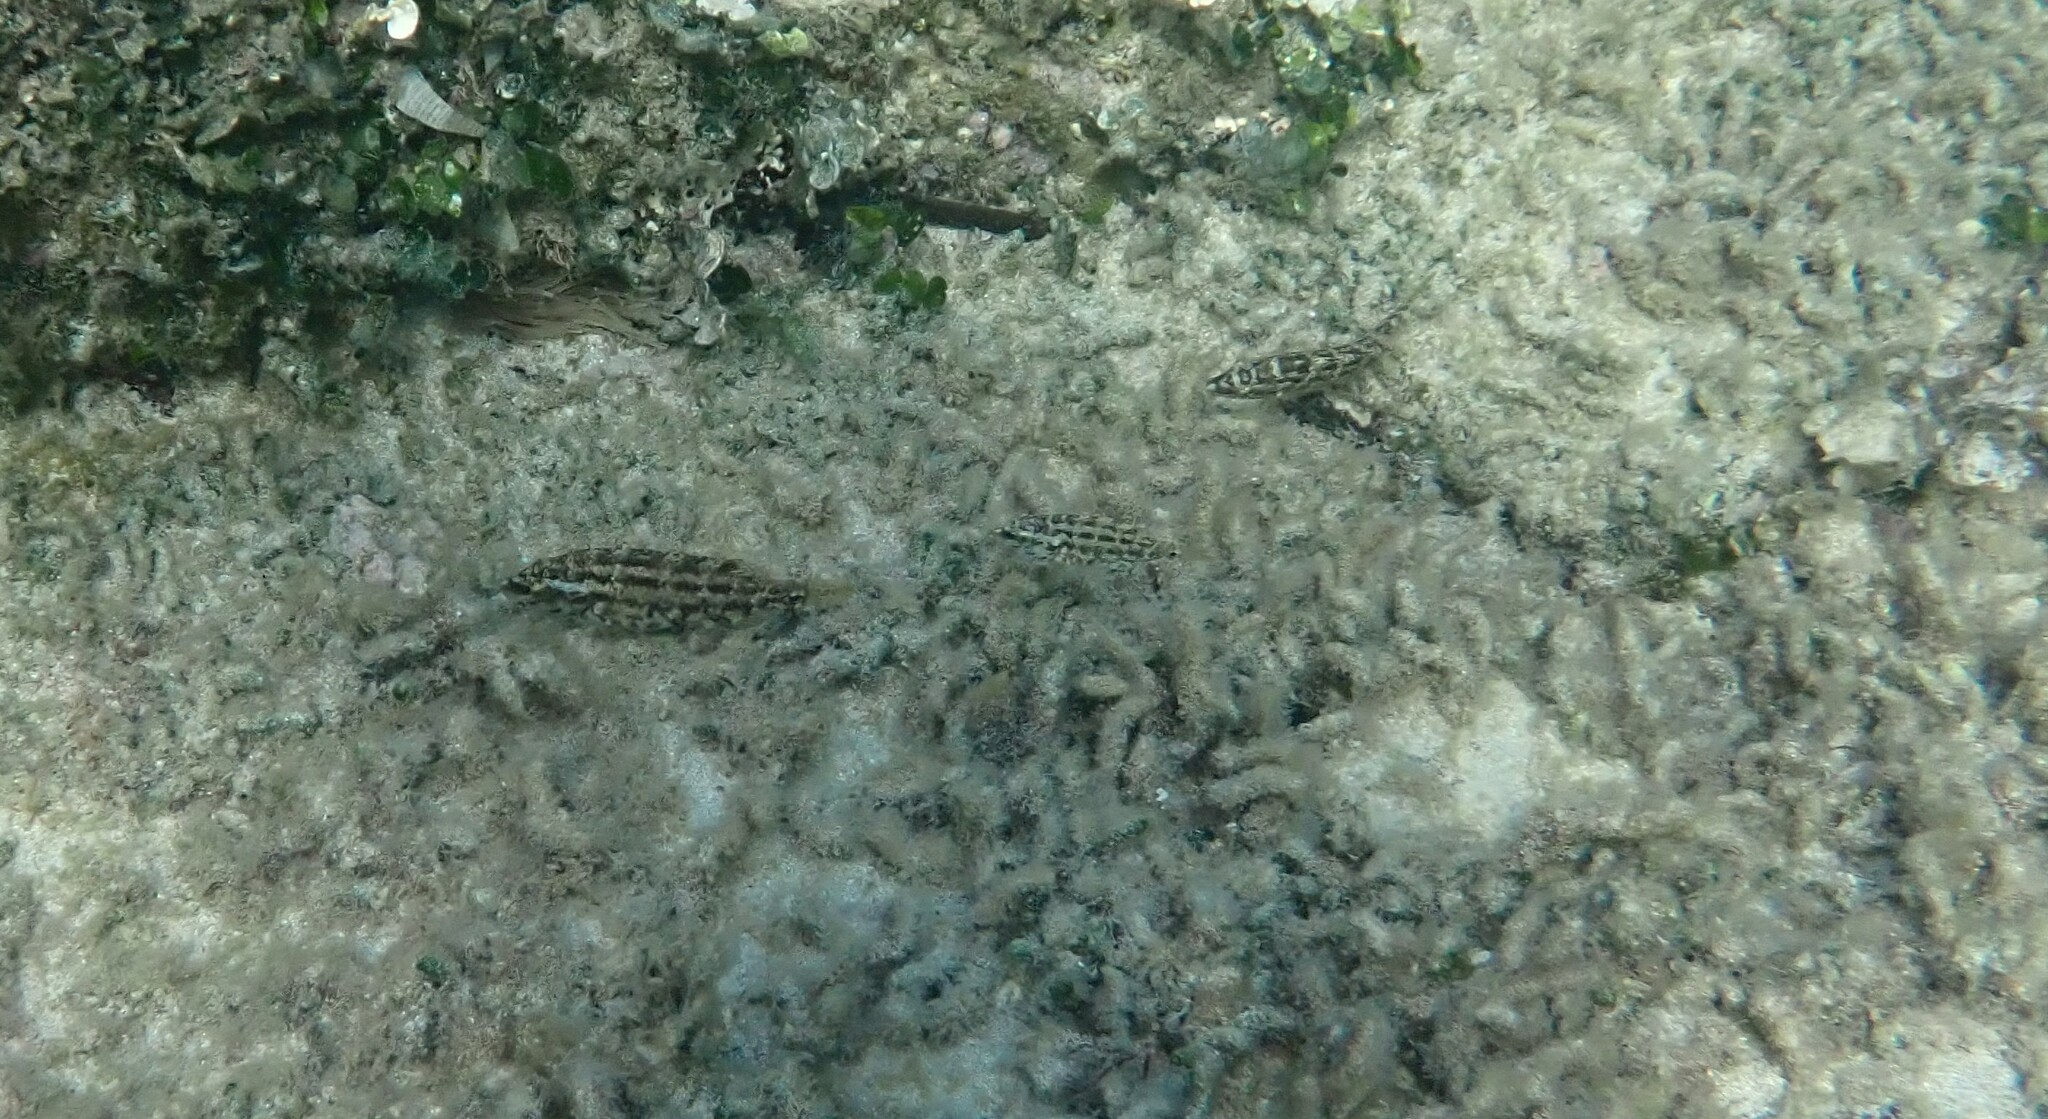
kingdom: Animalia
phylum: Chordata
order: Perciformes
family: Labridae
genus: Symphodus
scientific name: Symphodus roissali
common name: Five-spotted wrasse
